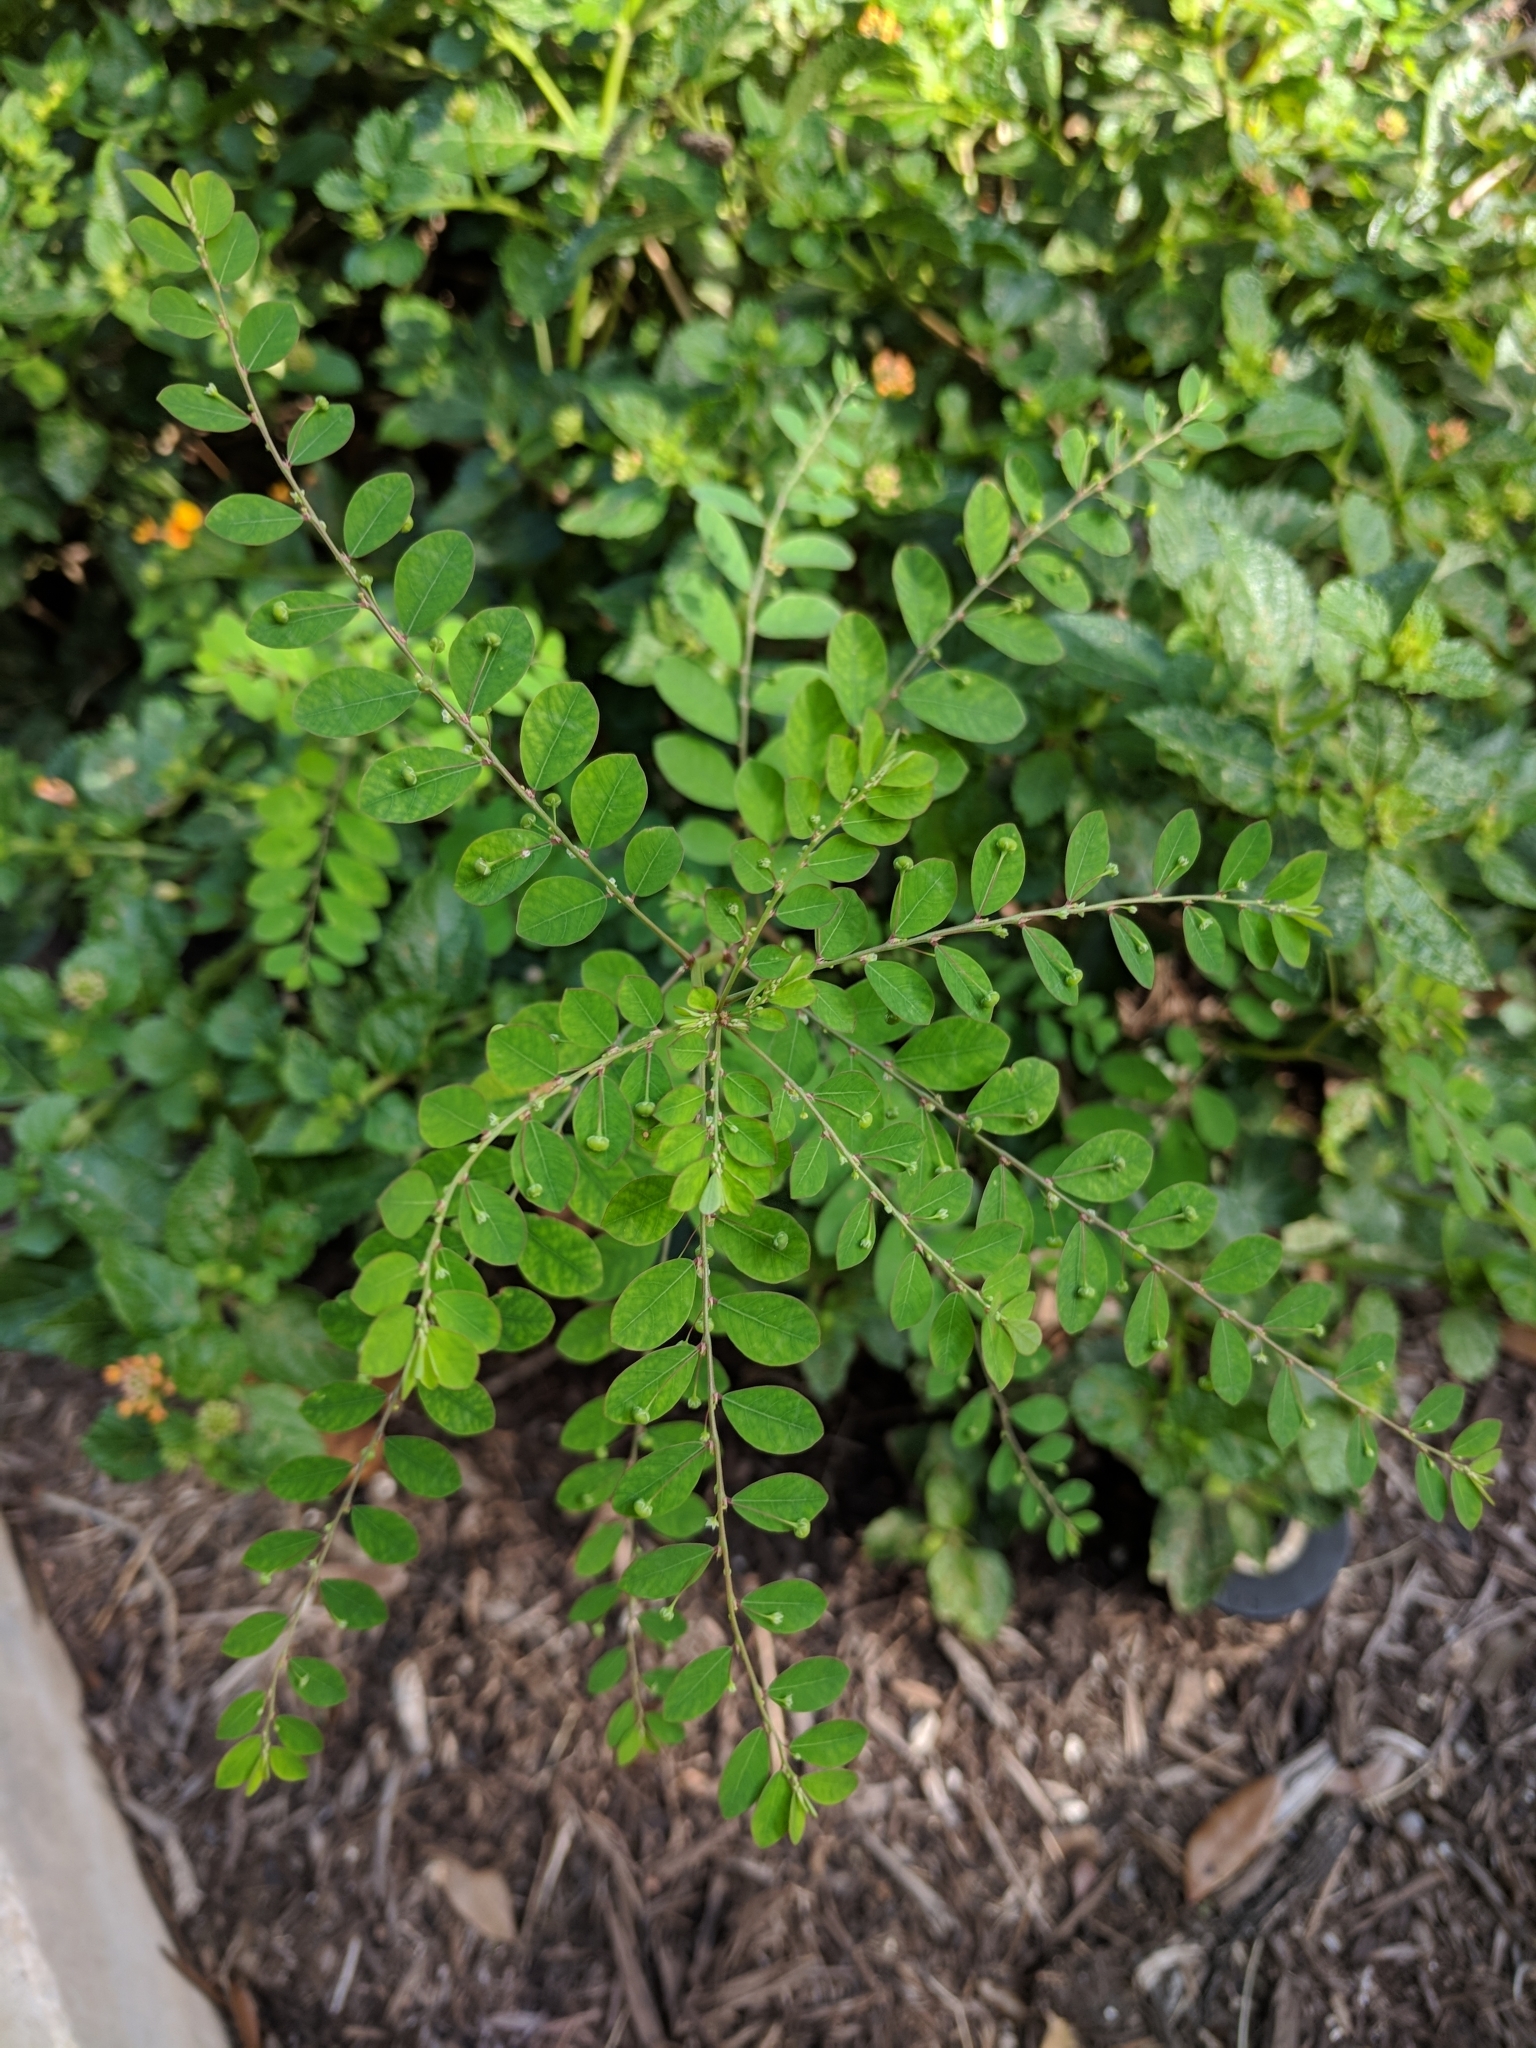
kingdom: Plantae
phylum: Tracheophyta
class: Magnoliopsida
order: Malpighiales
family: Phyllanthaceae
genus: Phyllanthus
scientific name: Phyllanthus tenellus
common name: Mascarene island leaf-flower
